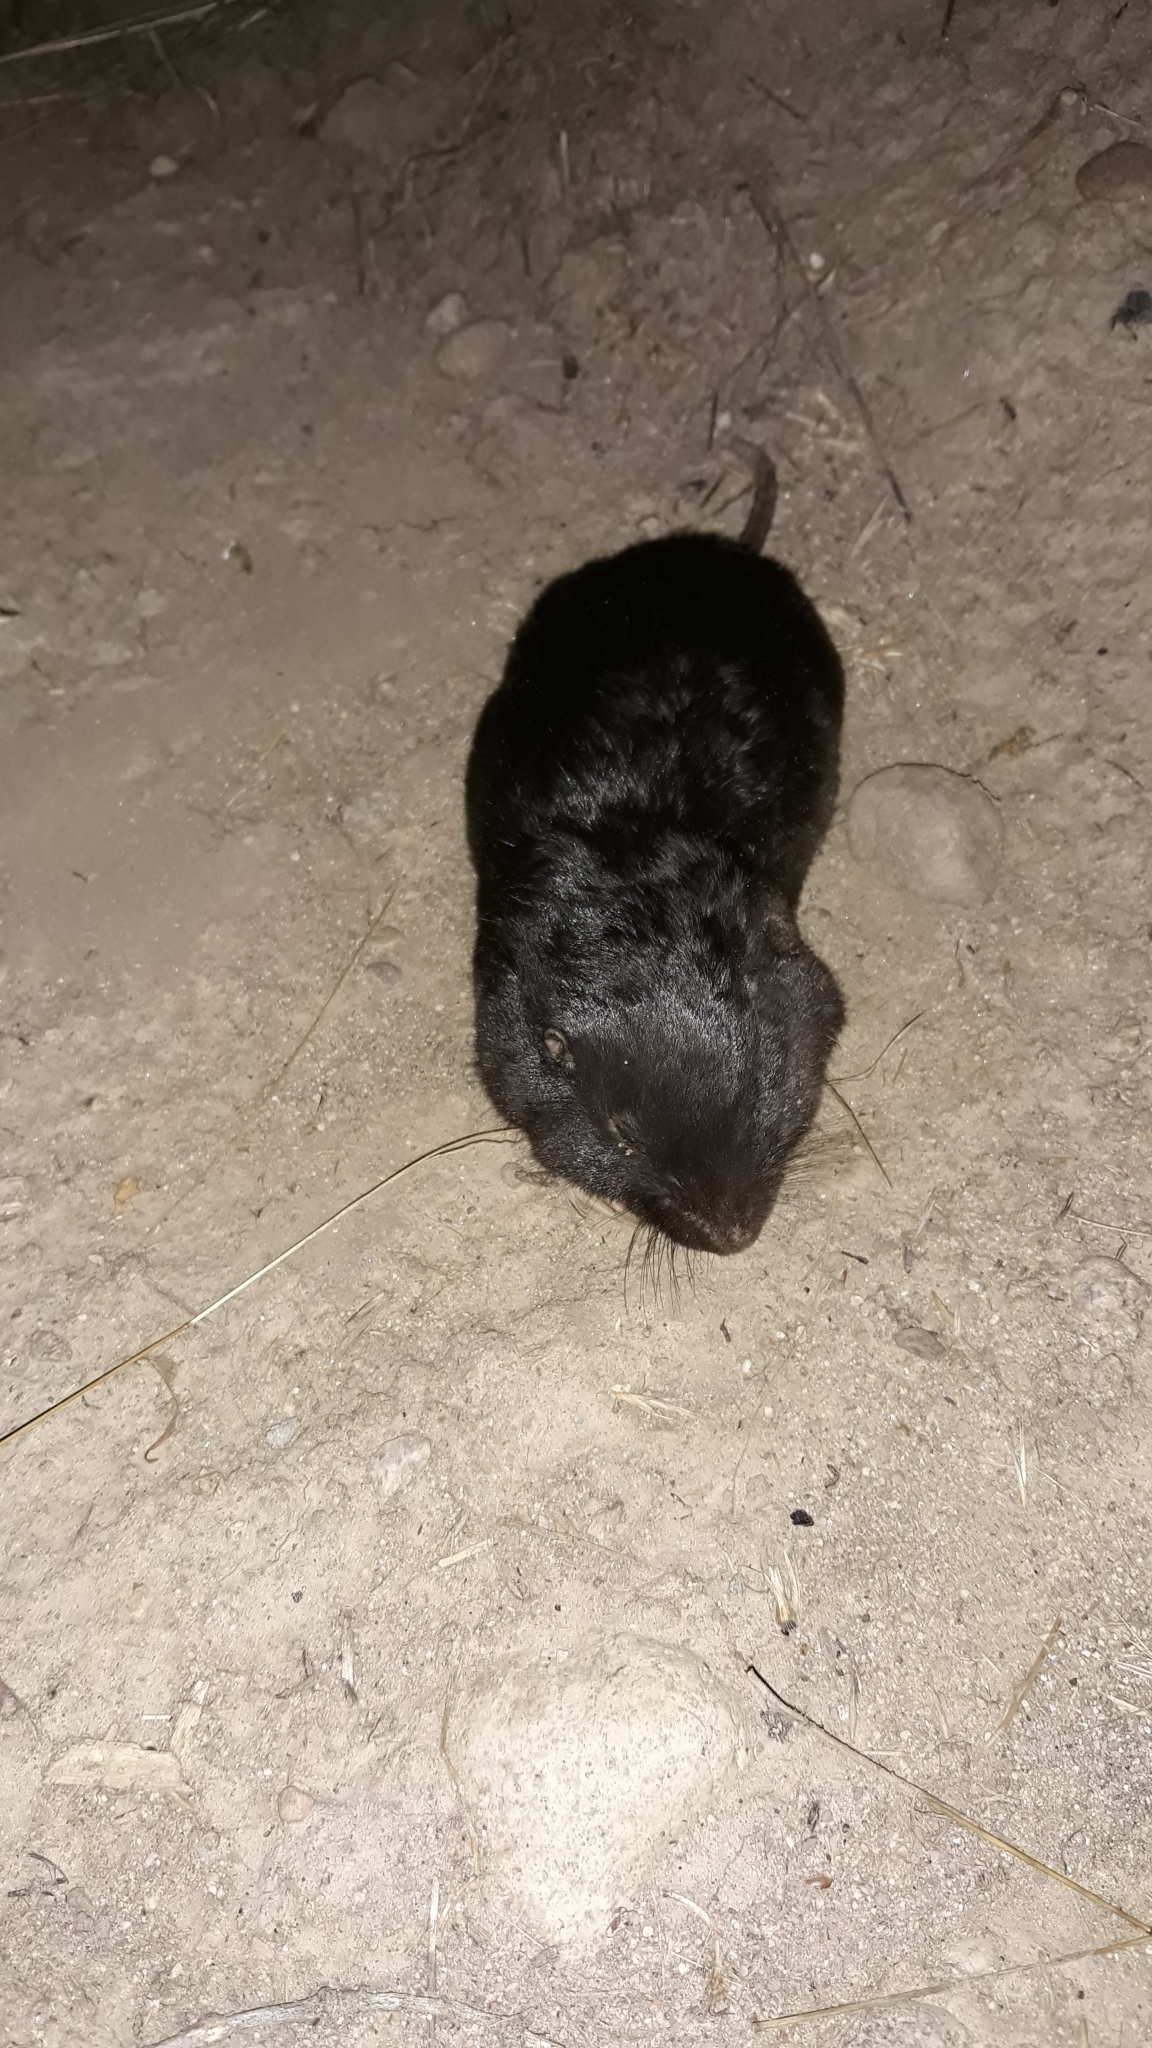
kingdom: Animalia
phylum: Chordata
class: Mammalia
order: Rodentia
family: Geomyidae
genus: Thomomys
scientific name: Thomomys townsendii
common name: Townsend's pocket gopher
